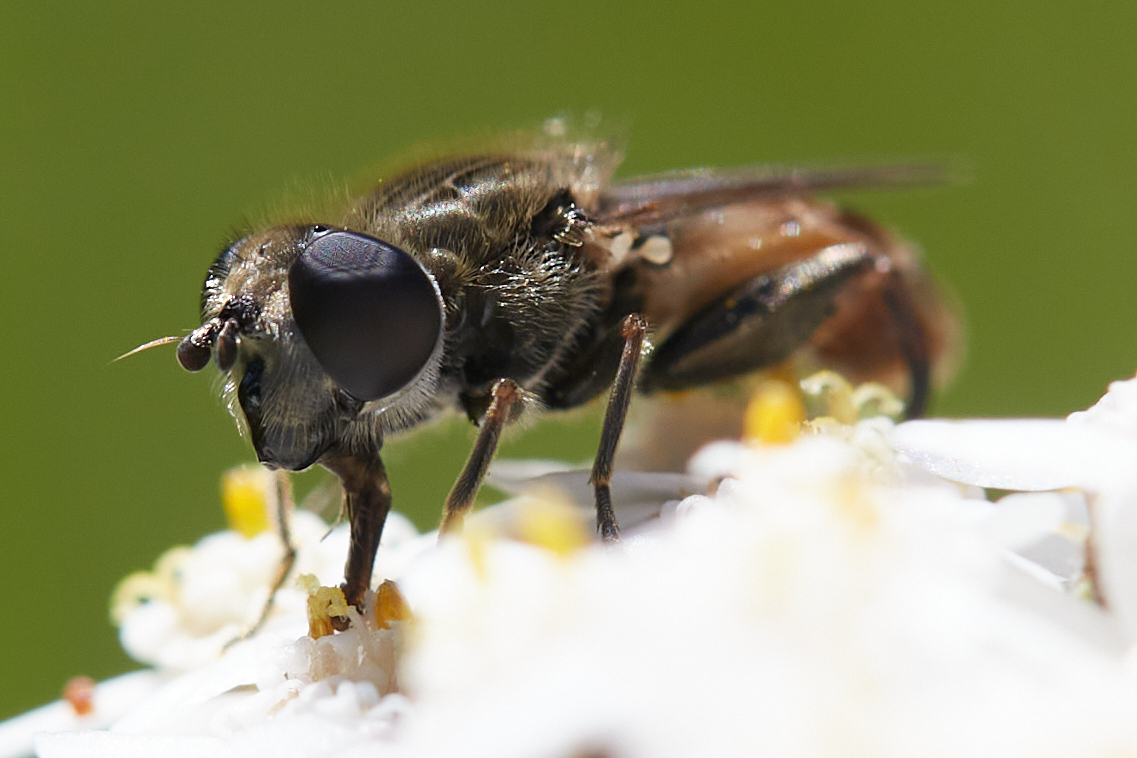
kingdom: Animalia
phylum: Arthropoda
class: Insecta
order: Diptera
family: Syrphidae
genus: Asemosyrphus
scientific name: Asemosyrphus polygrammus
